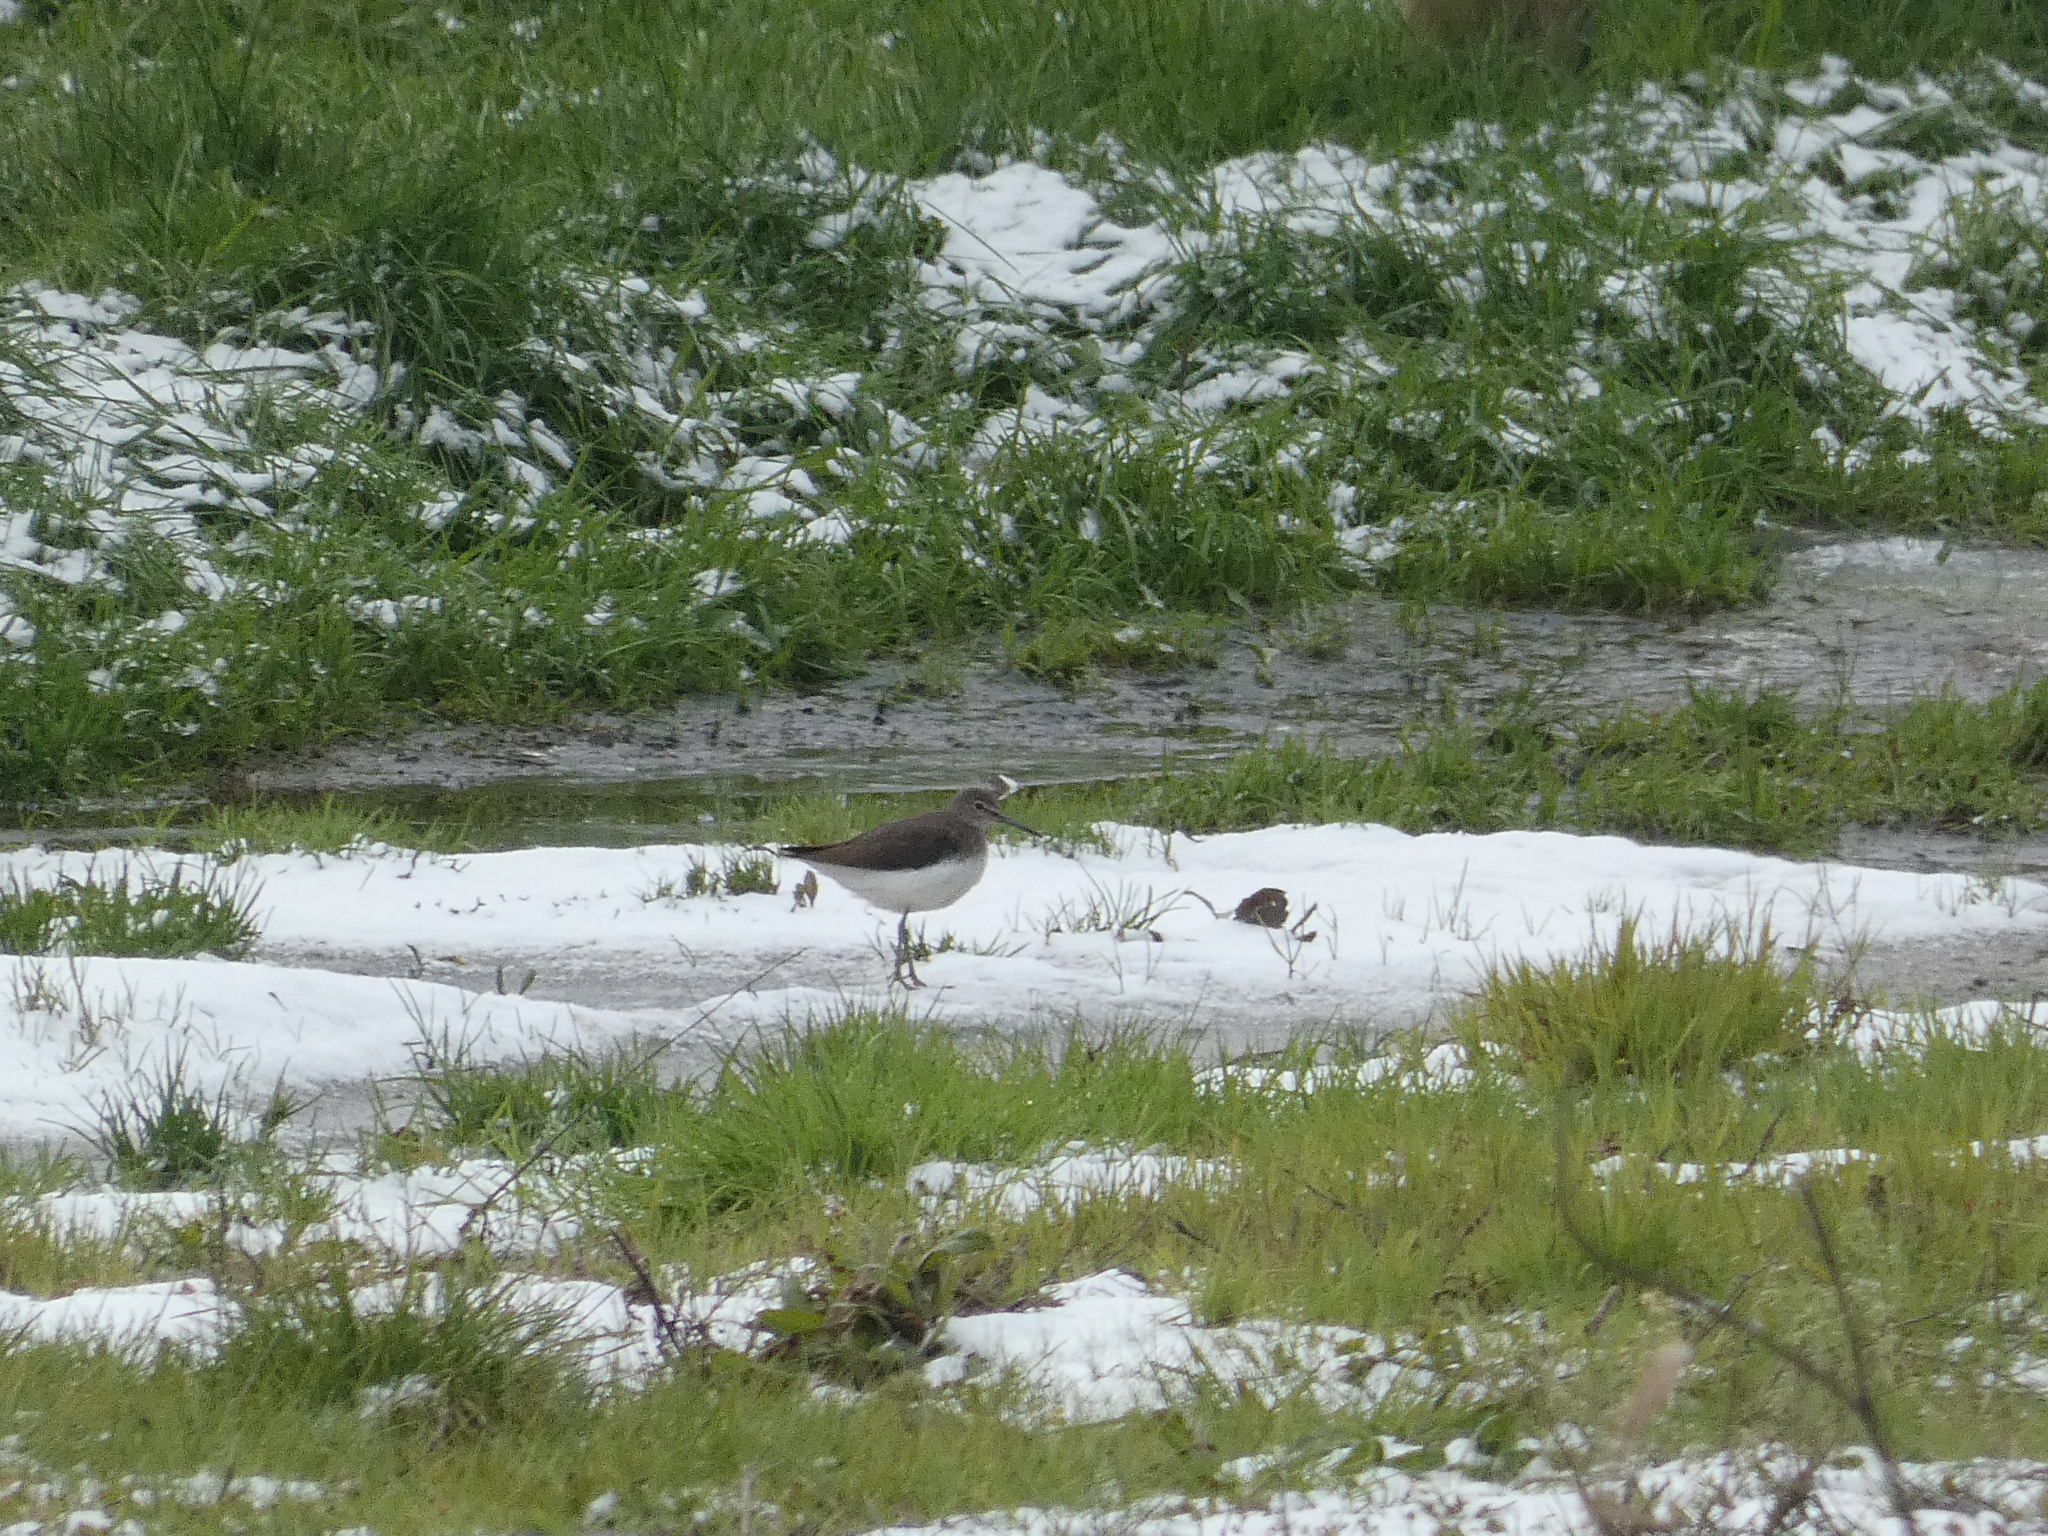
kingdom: Animalia
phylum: Chordata
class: Aves
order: Charadriiformes
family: Scolopacidae
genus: Tringa
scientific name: Tringa ochropus
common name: Green sandpiper
